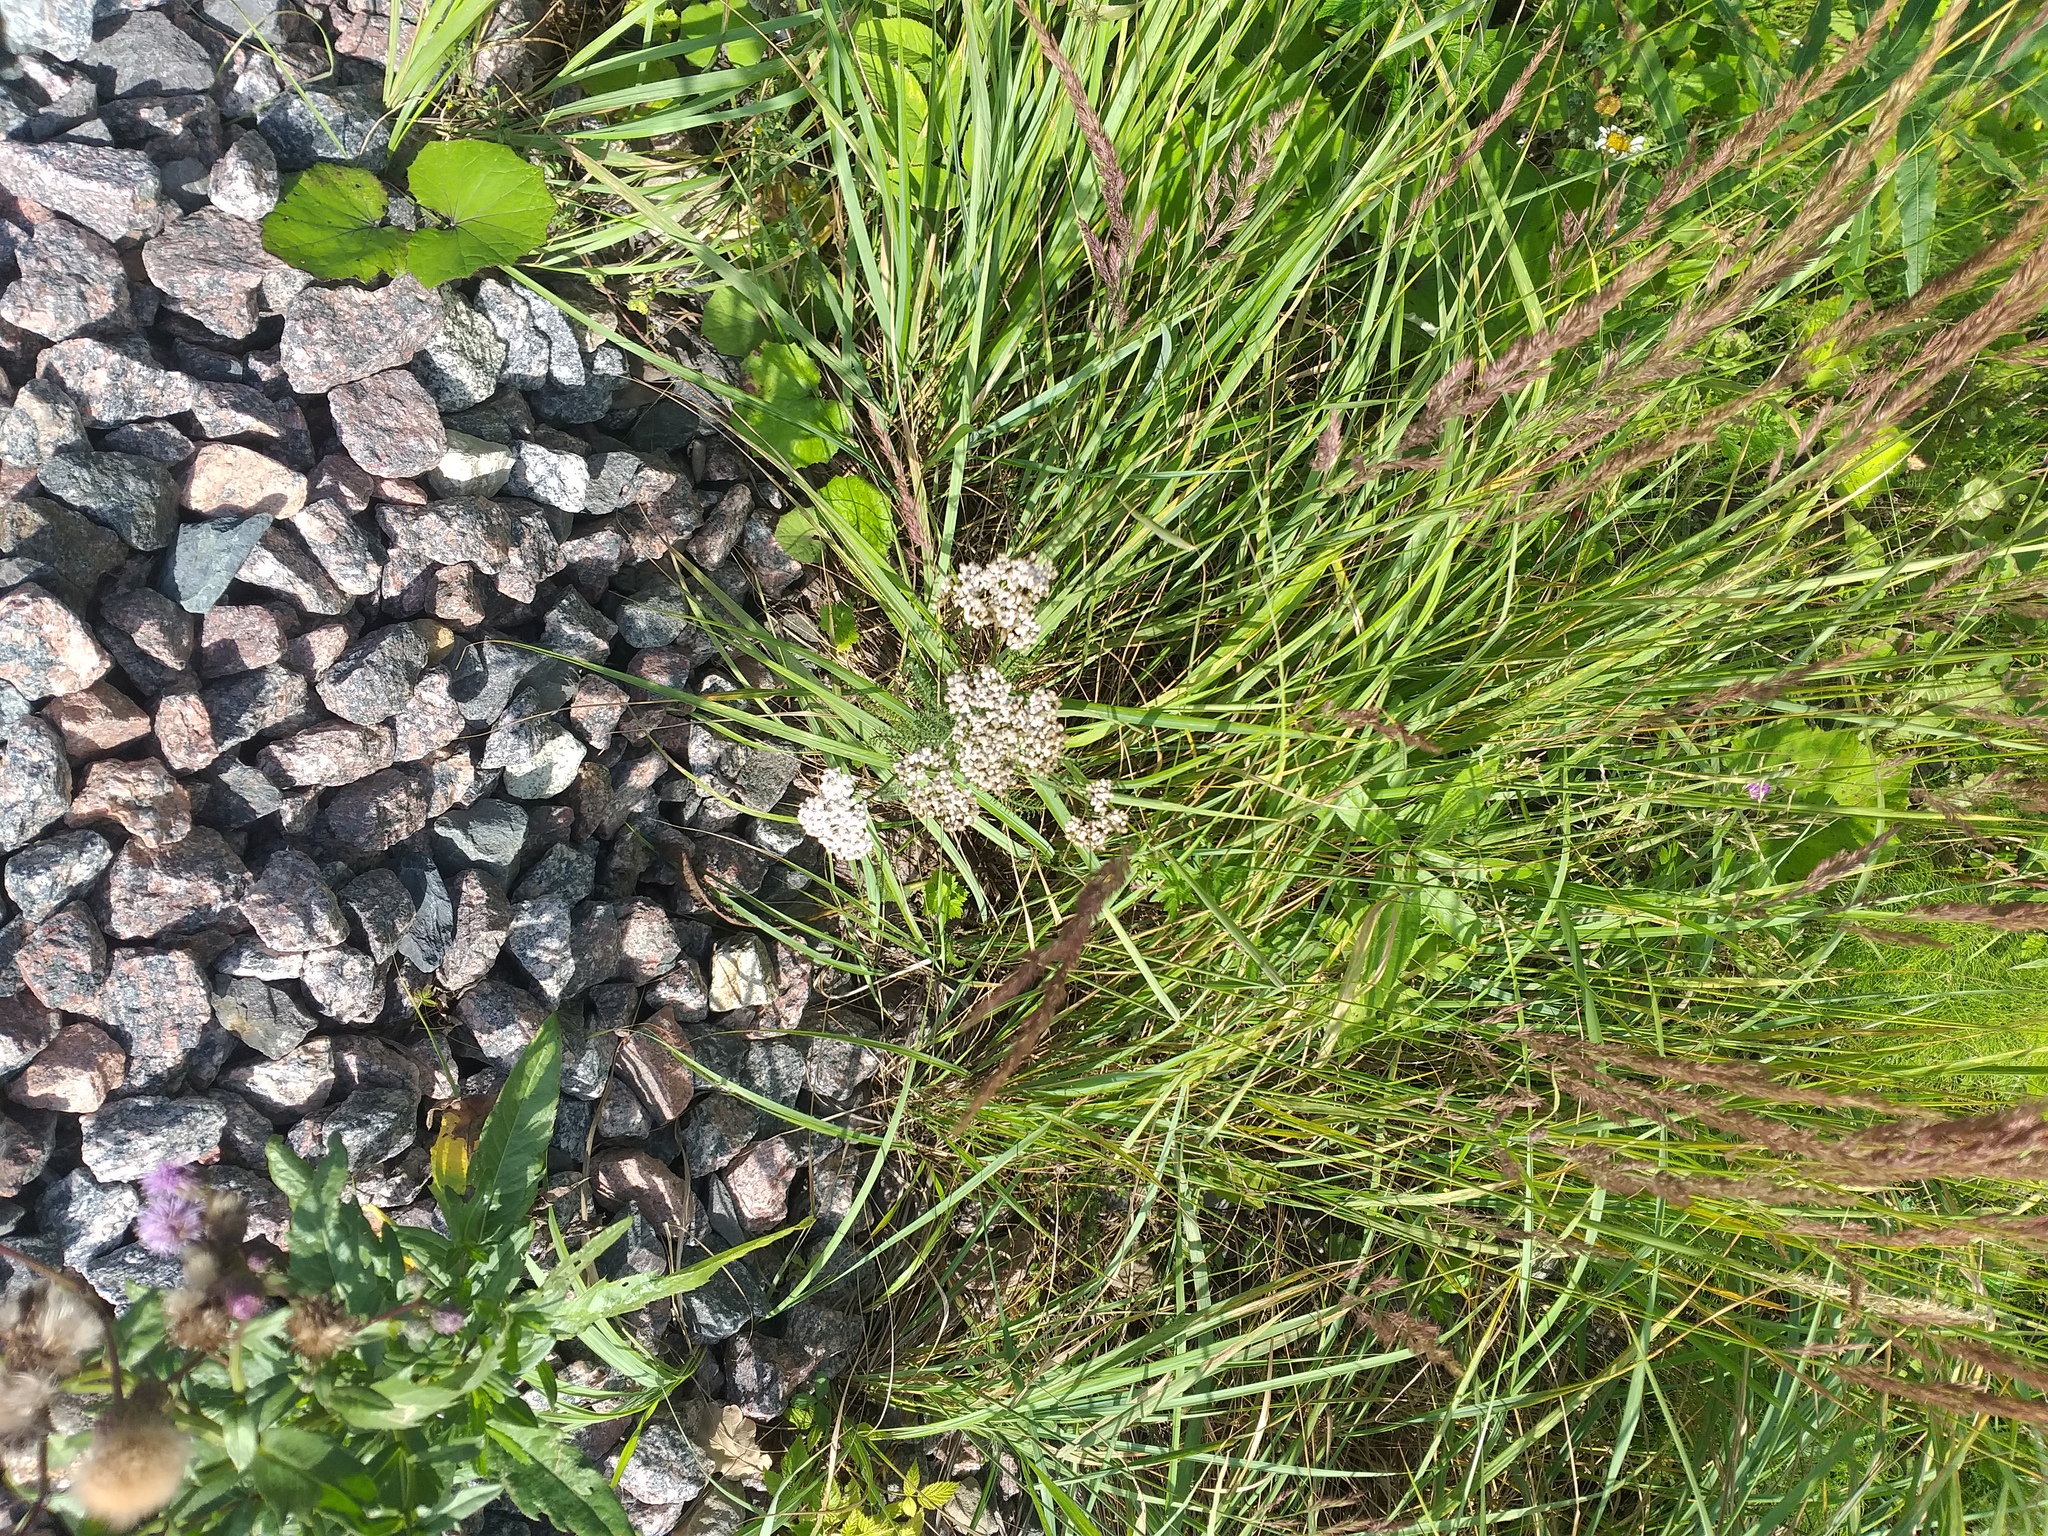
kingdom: Plantae
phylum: Tracheophyta
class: Magnoliopsida
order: Asterales
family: Asteraceae
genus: Achillea
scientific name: Achillea millefolium
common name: Yarrow
